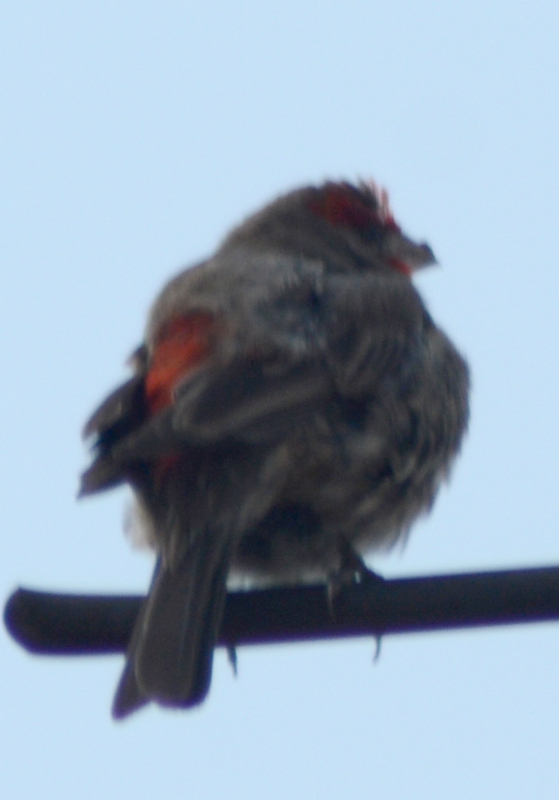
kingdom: Animalia
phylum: Chordata
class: Aves
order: Passeriformes
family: Fringillidae
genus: Haemorhous
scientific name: Haemorhous mexicanus
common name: House finch
